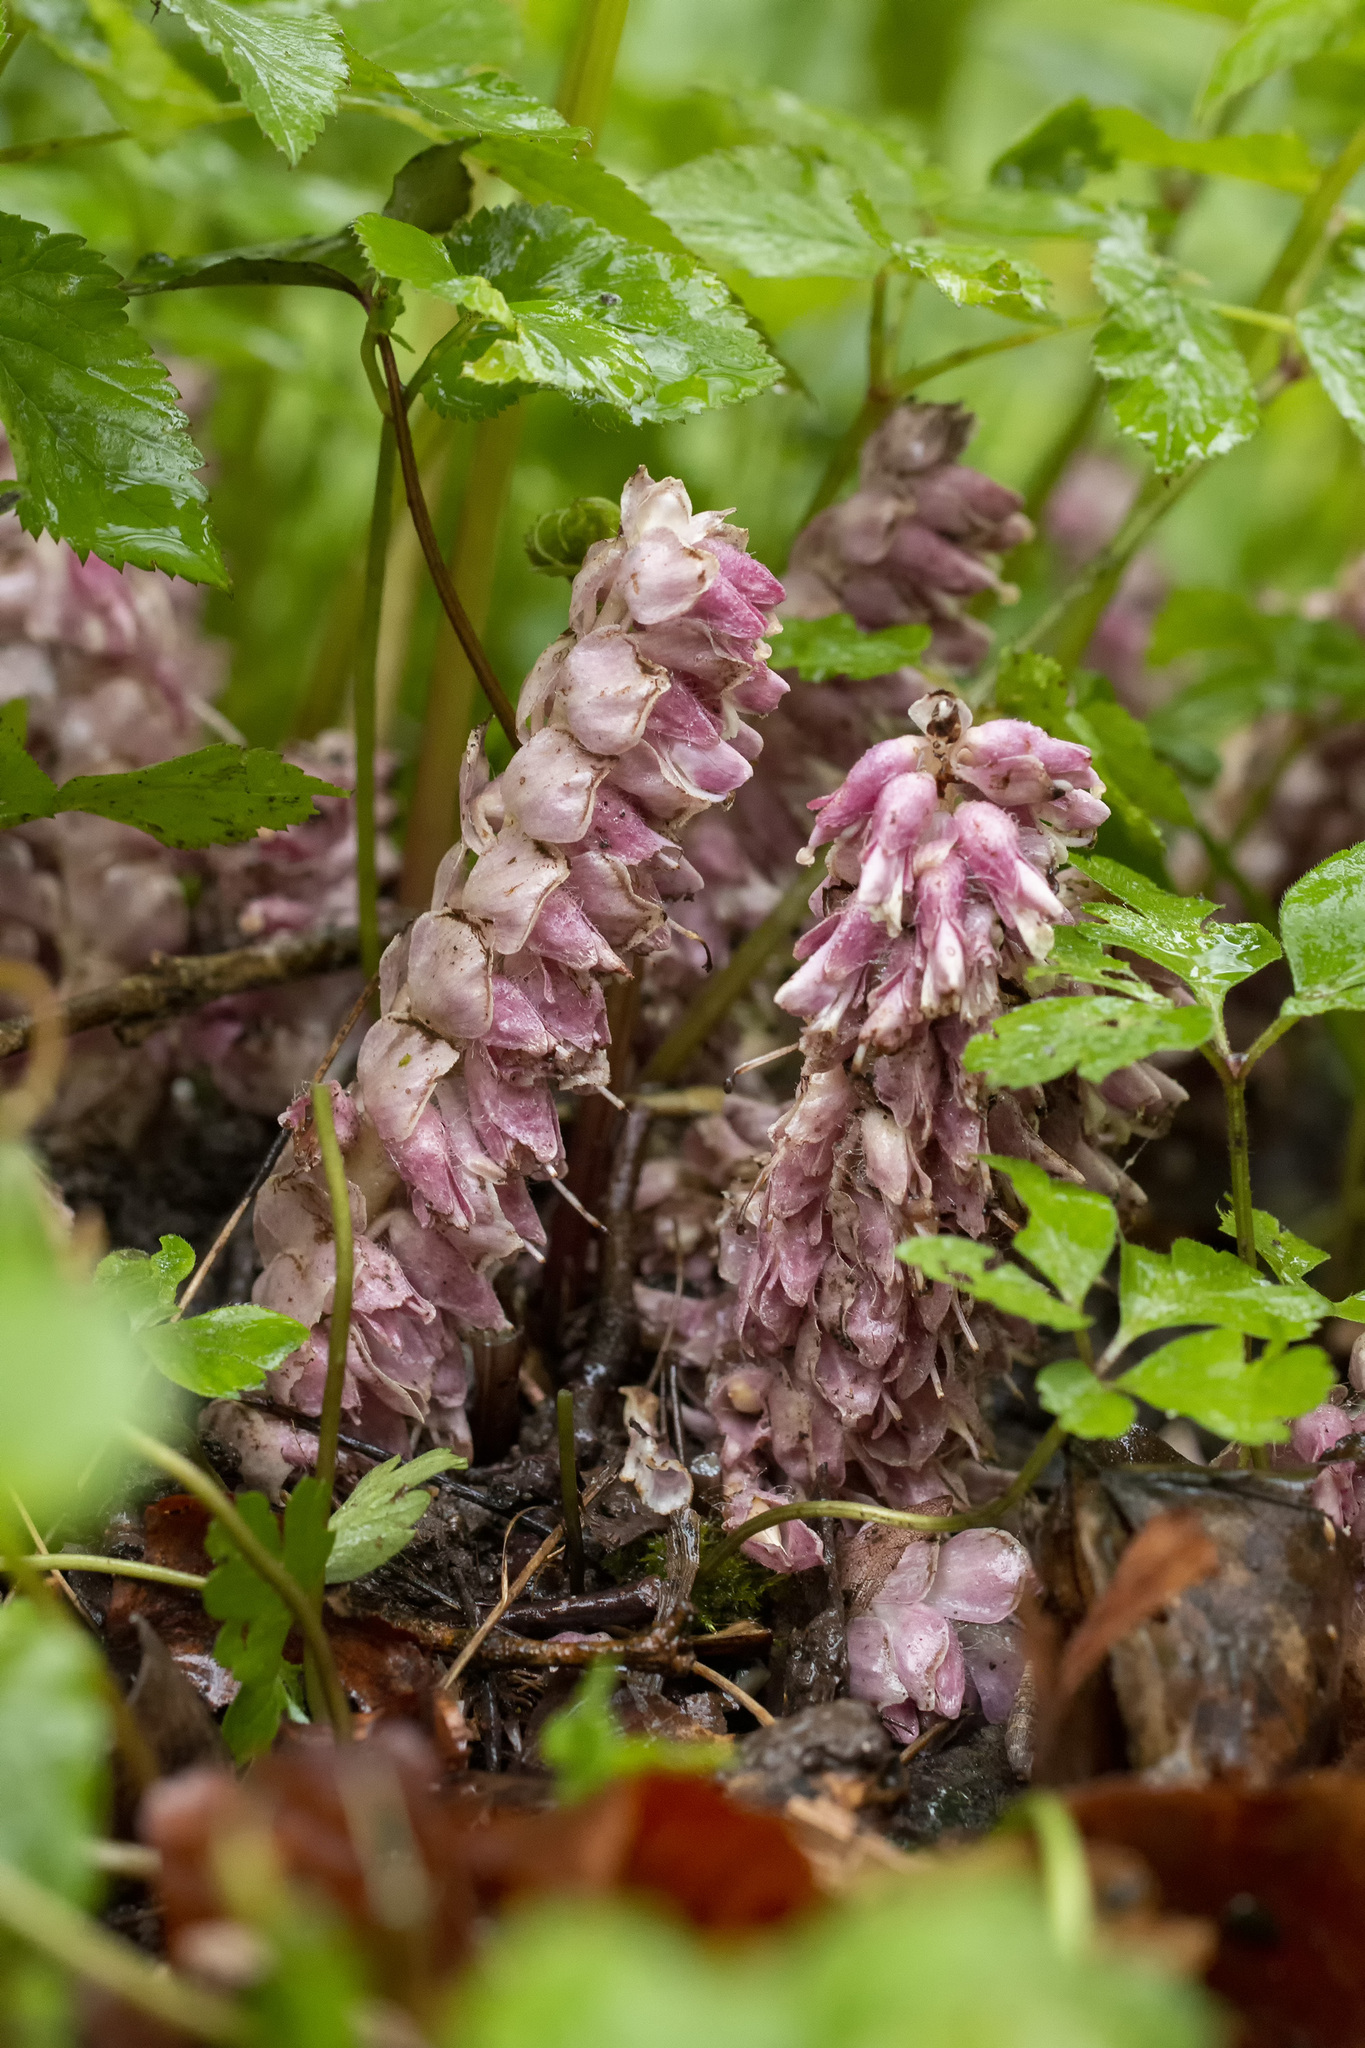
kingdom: Plantae
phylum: Tracheophyta
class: Magnoliopsida
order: Lamiales
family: Orobanchaceae
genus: Lathraea
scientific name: Lathraea squamaria
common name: Toothwort
